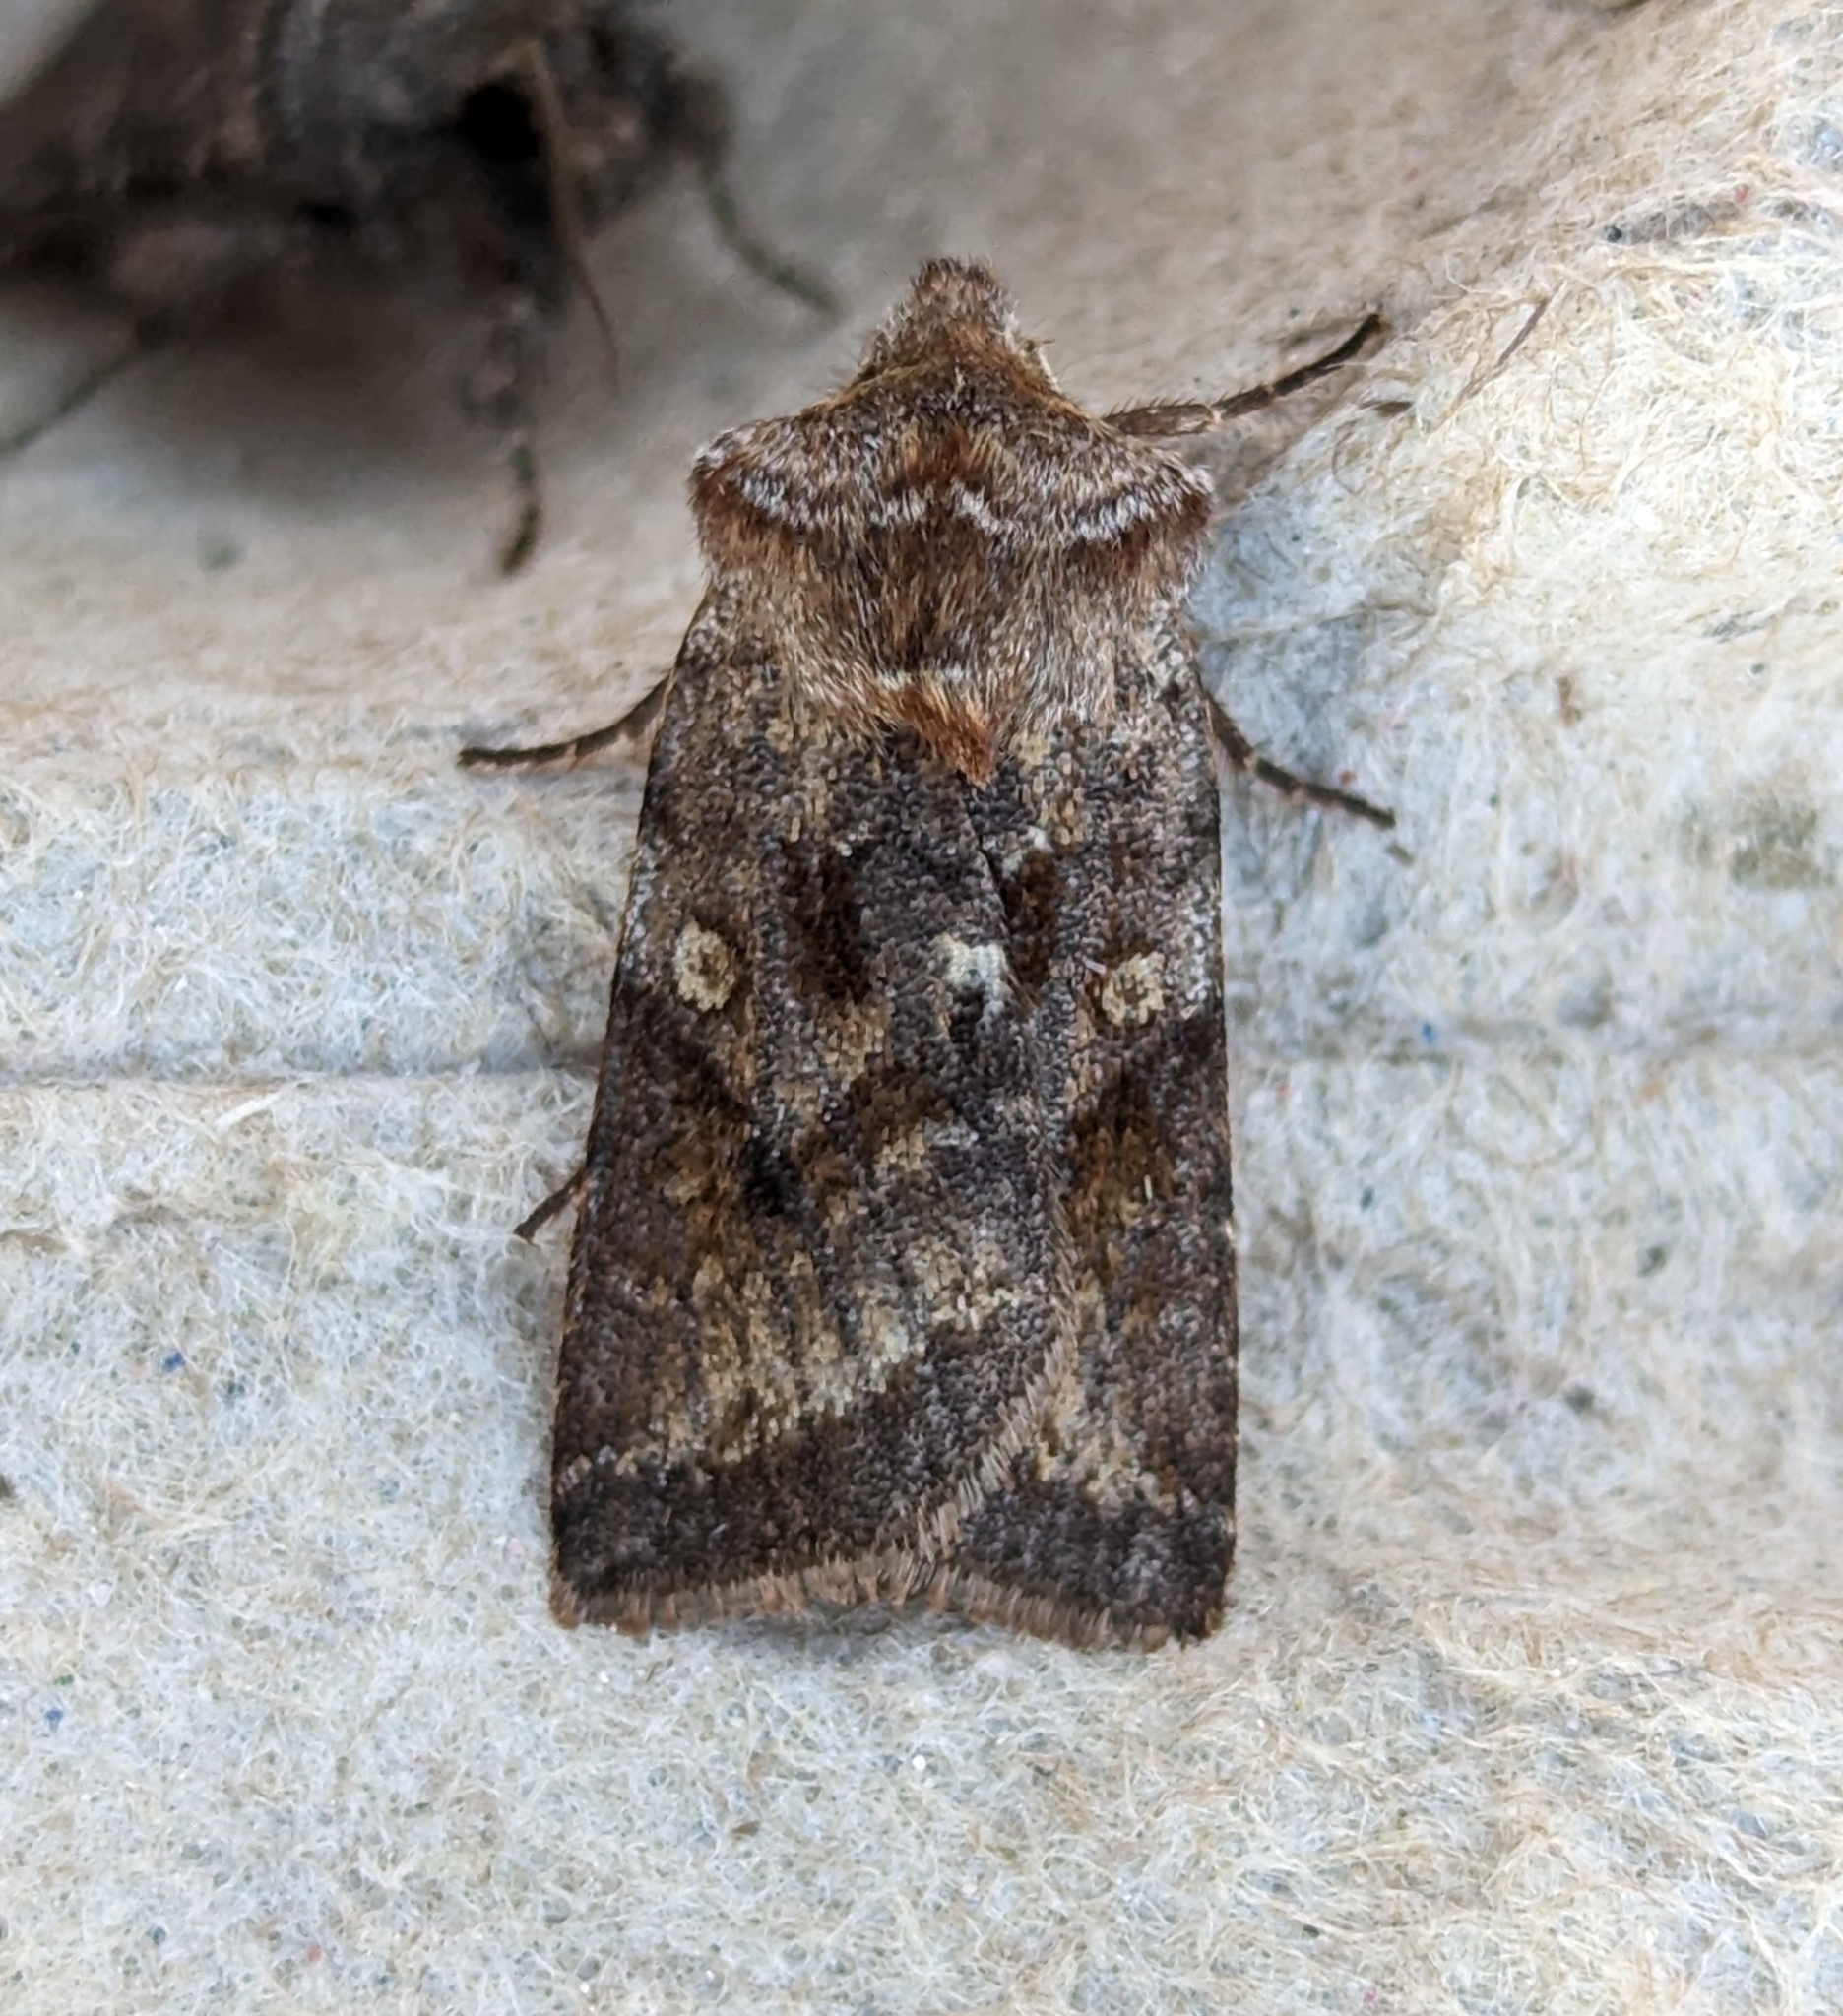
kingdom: Animalia
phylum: Arthropoda
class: Insecta
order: Lepidoptera
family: Noctuidae
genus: Cerastis
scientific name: Cerastis salicarum
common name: Willow dart
